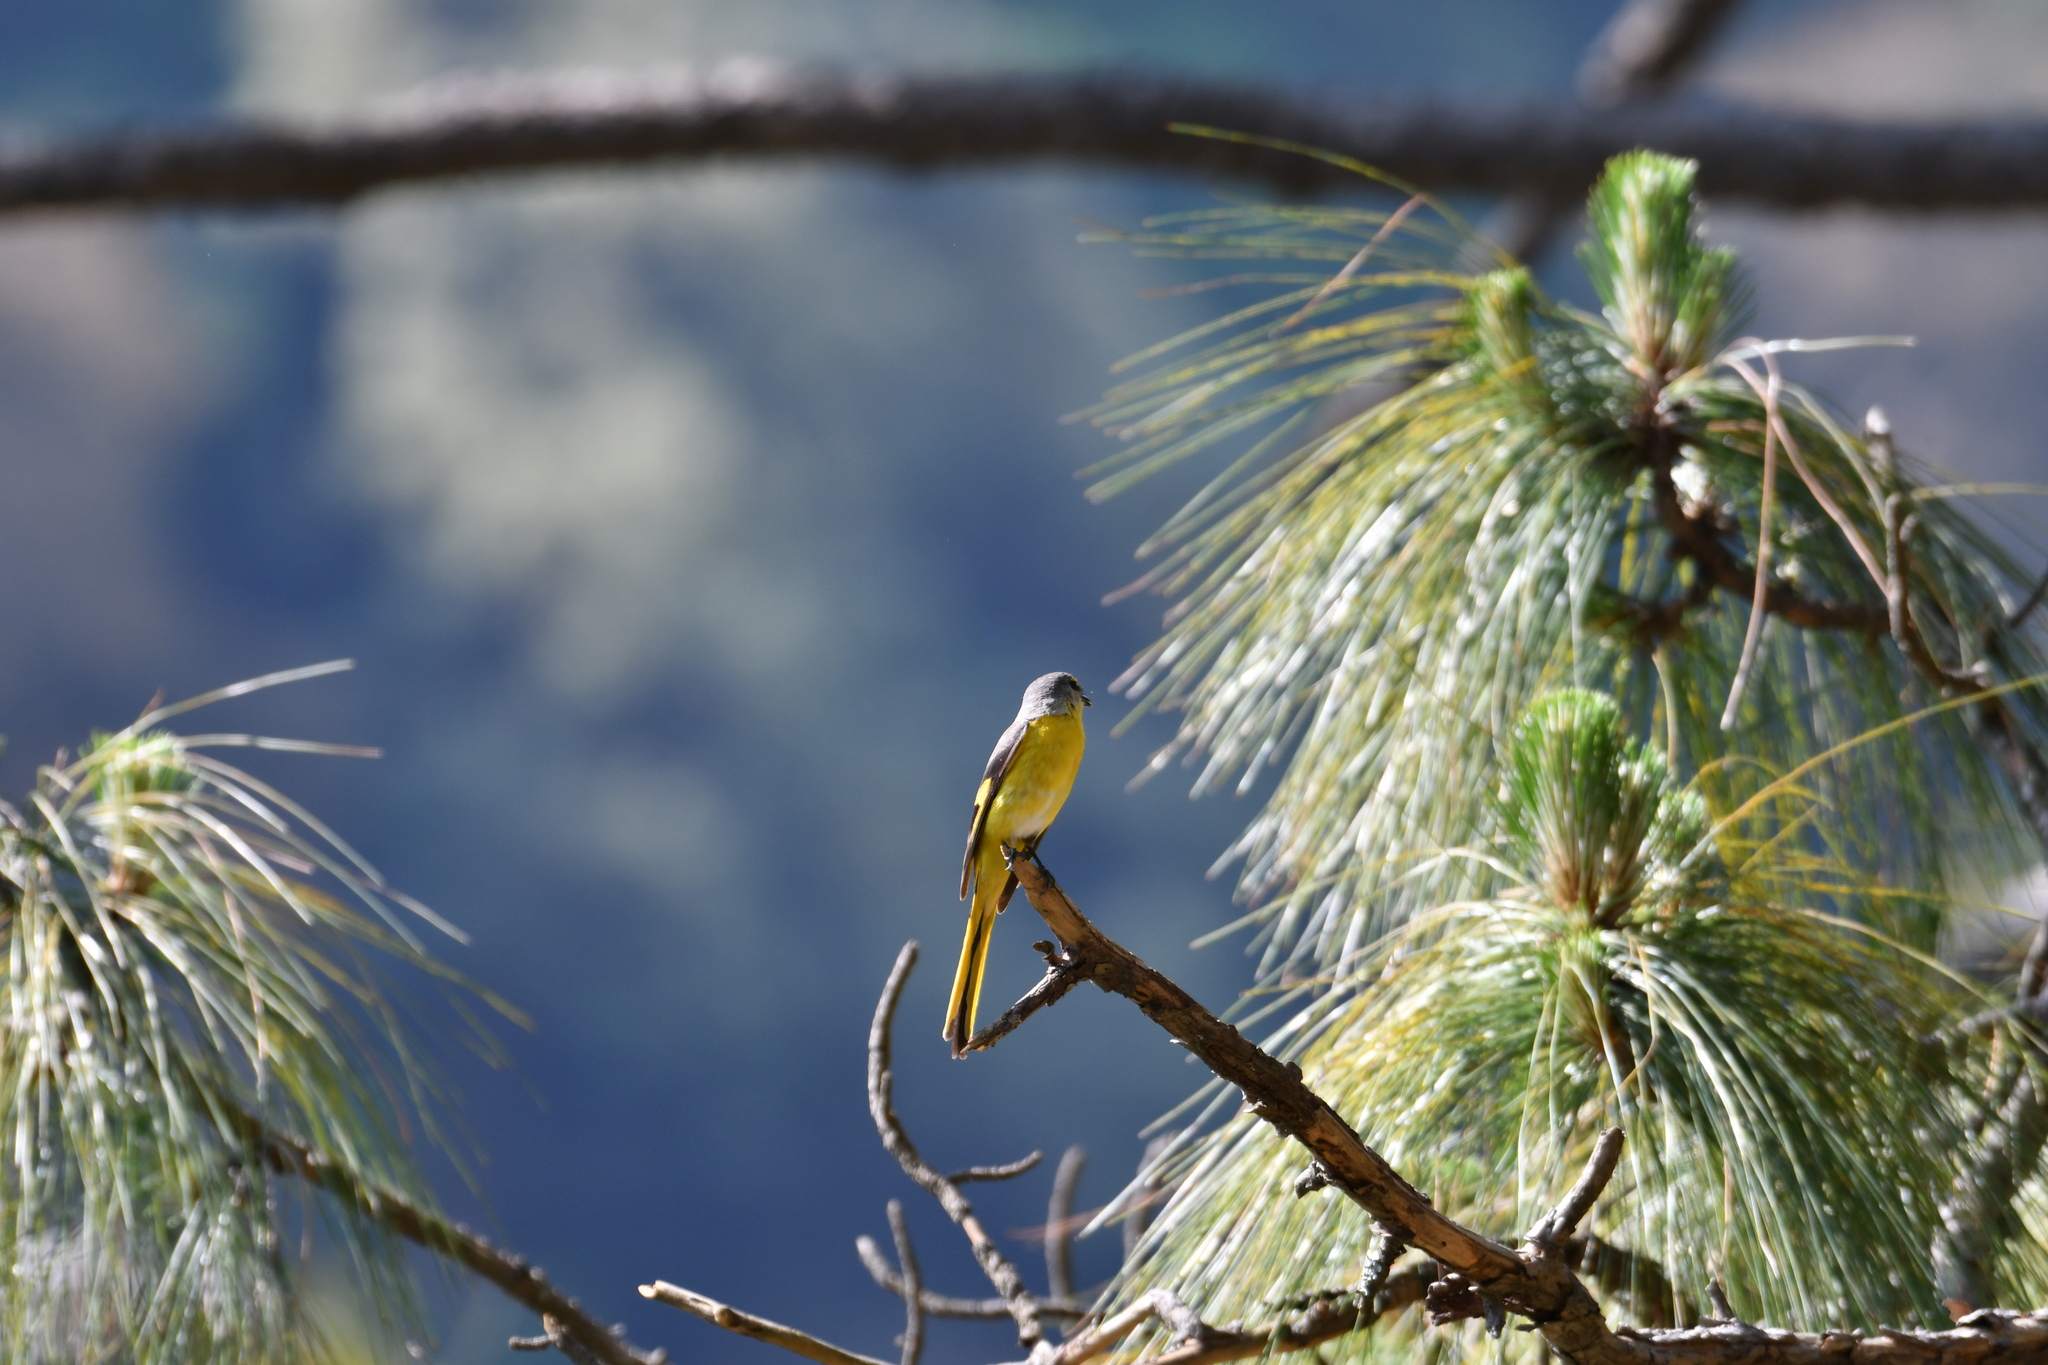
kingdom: Animalia
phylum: Chordata
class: Aves
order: Passeriformes
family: Campephagidae
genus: Pericrocotus
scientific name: Pericrocotus ethologus
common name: Long-tailed minivet
